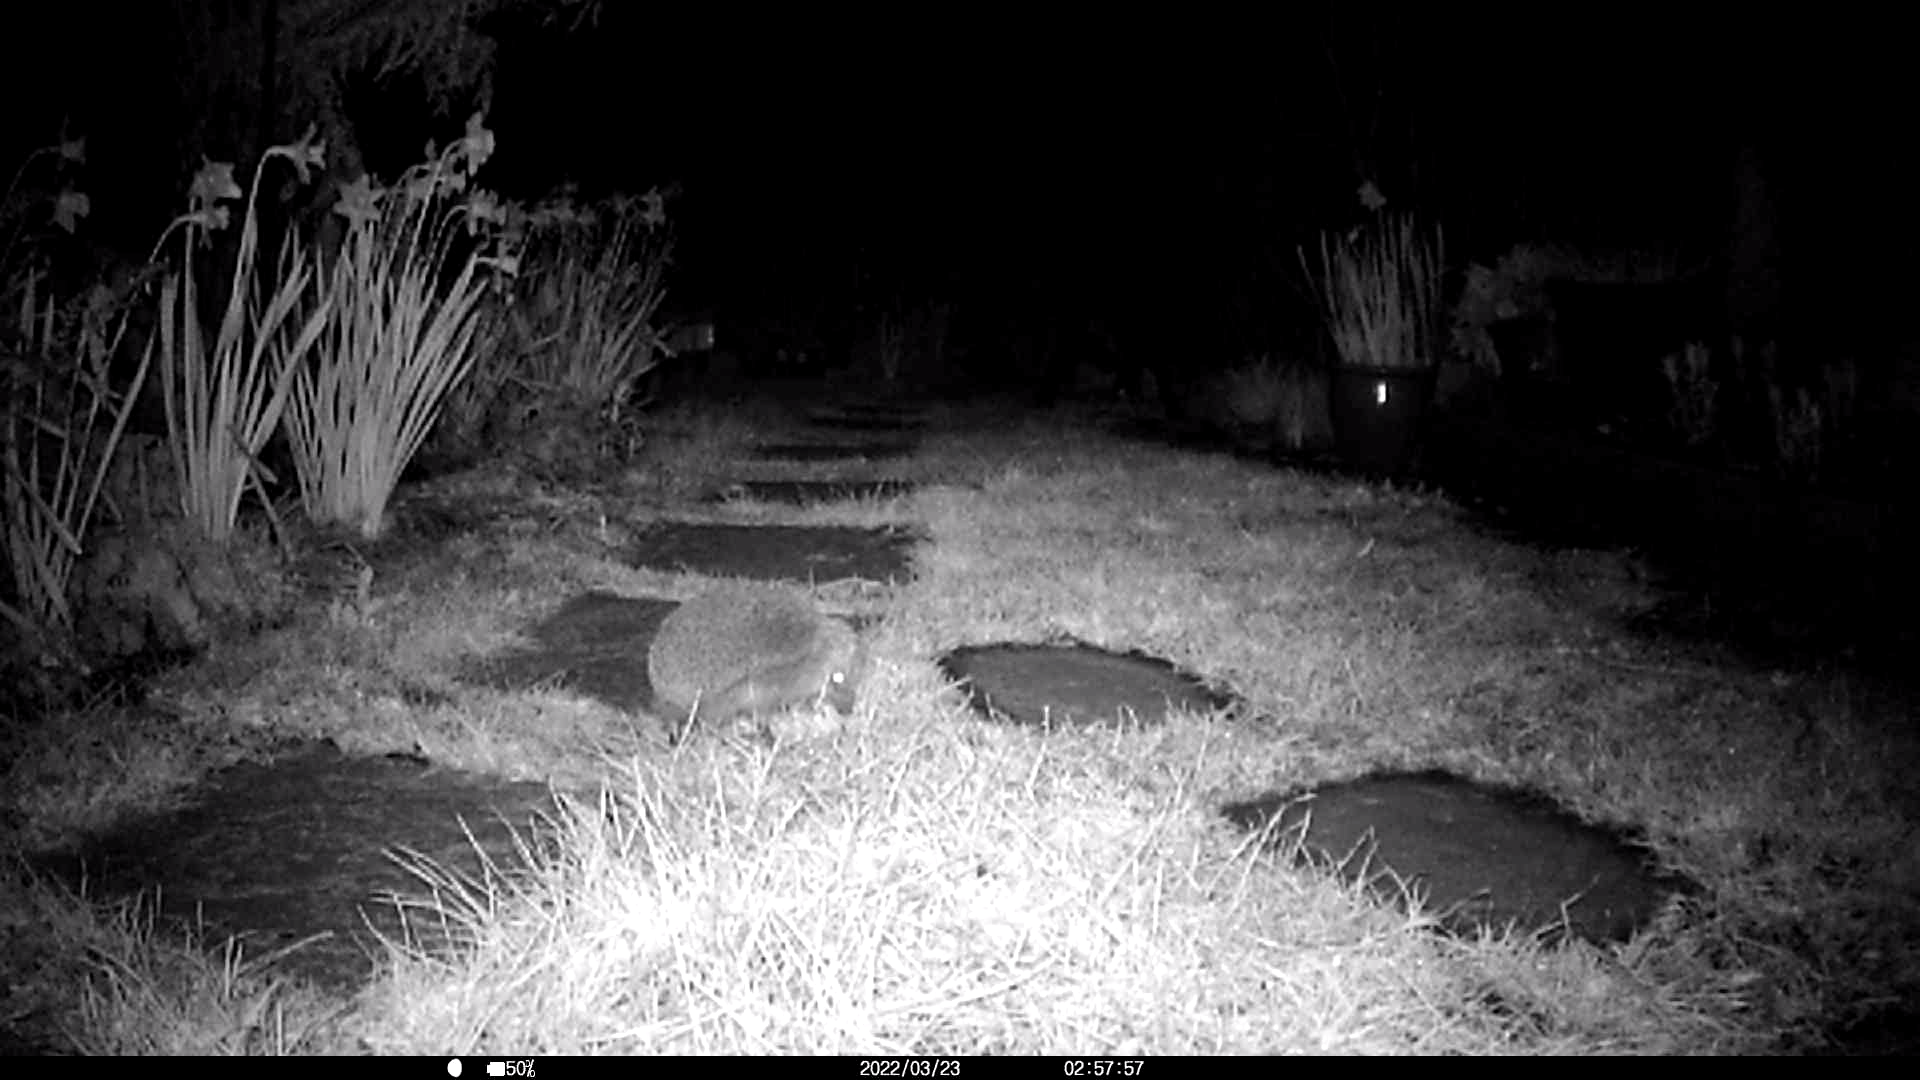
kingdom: Animalia
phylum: Chordata
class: Mammalia
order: Erinaceomorpha
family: Erinaceidae
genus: Erinaceus
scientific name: Erinaceus europaeus
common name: West european hedgehog
